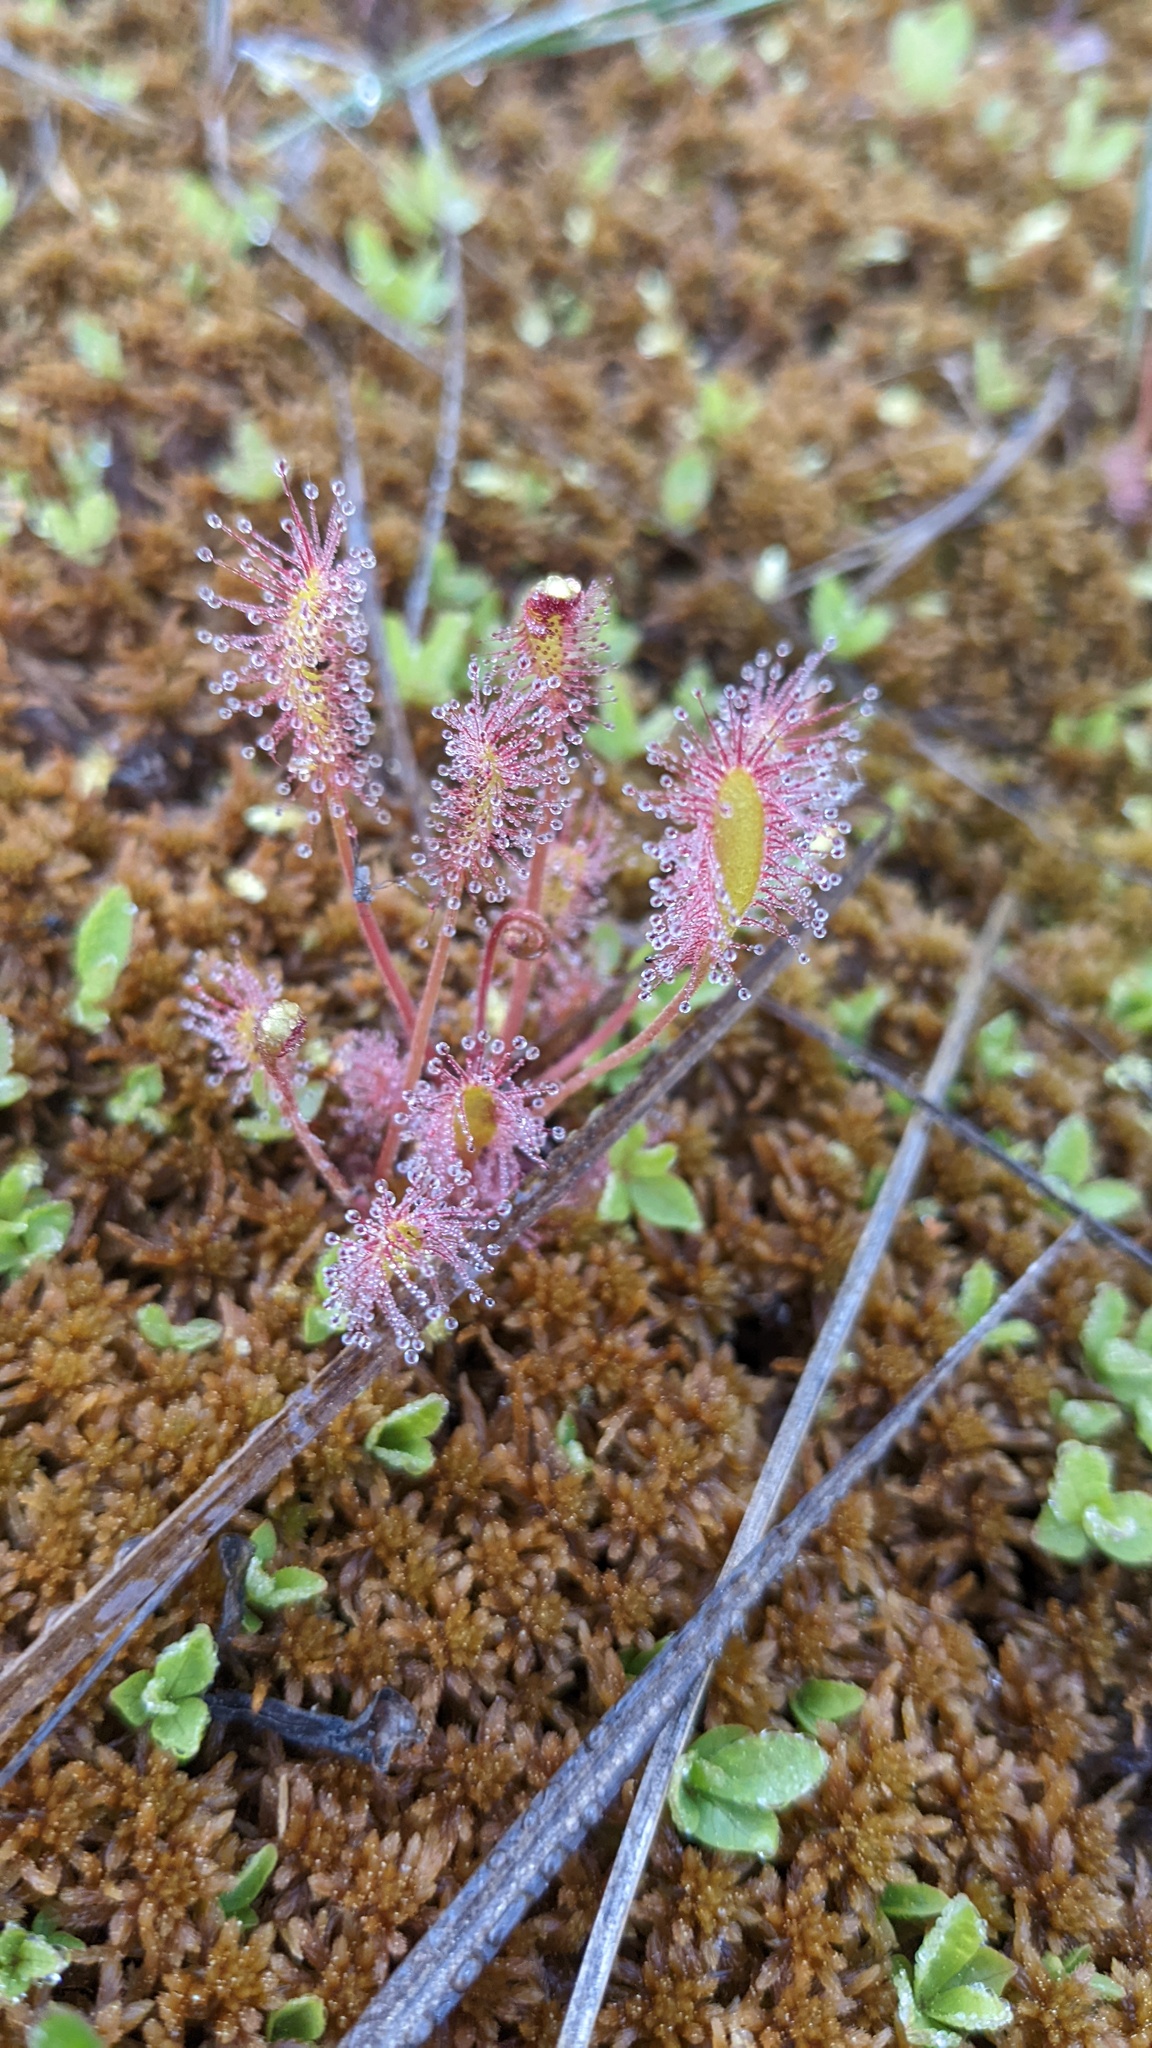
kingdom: Plantae
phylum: Tracheophyta
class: Magnoliopsida
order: Caryophyllales
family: Droseraceae
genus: Drosera
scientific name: Drosera anglica
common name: Great sundew
